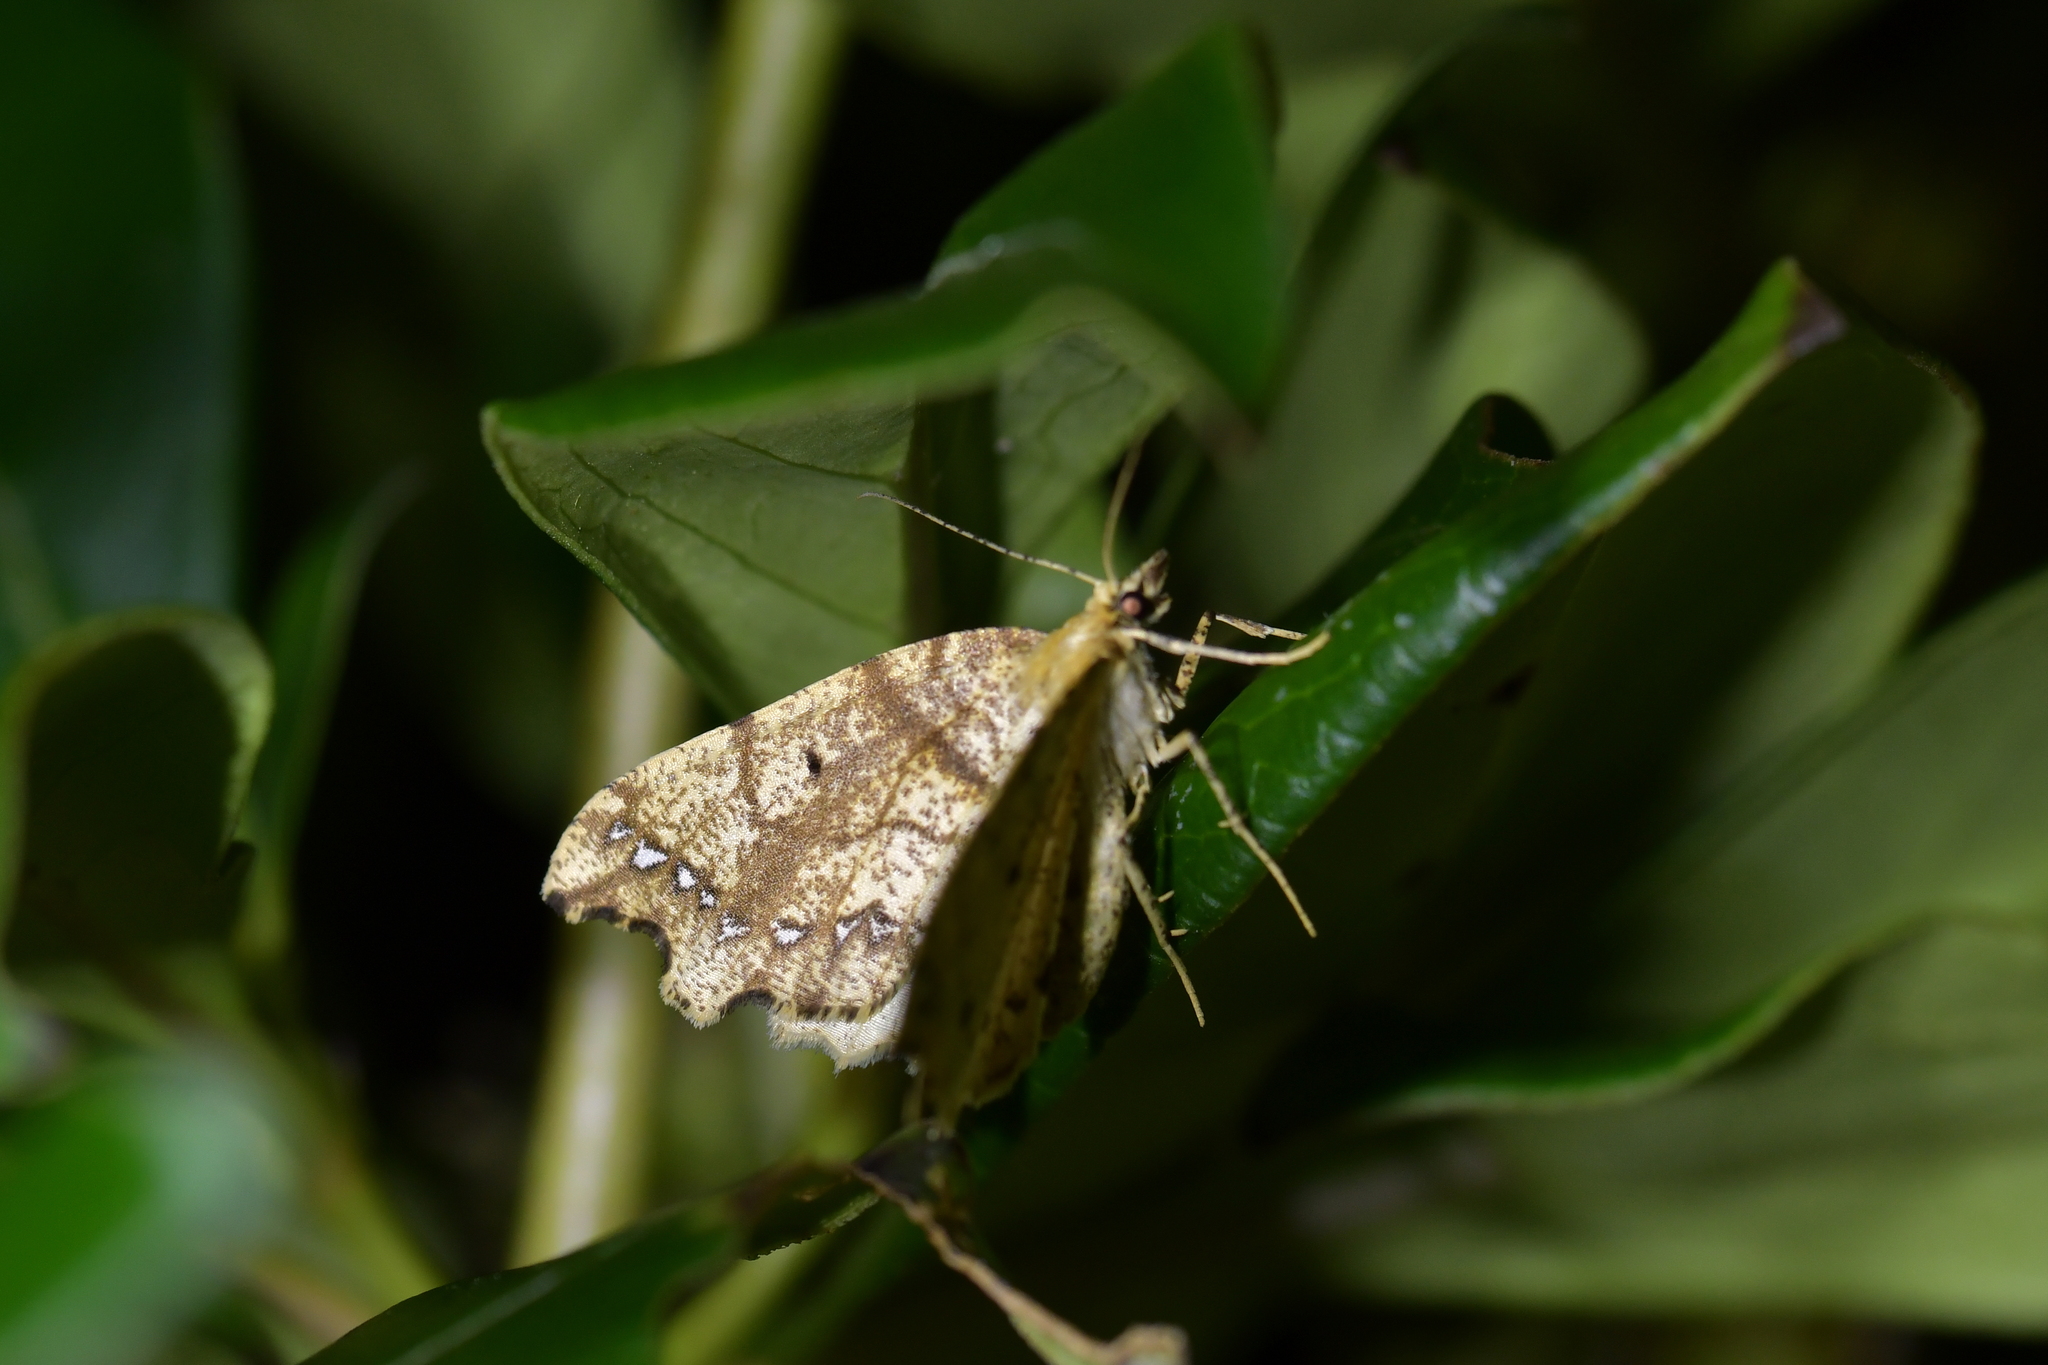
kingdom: Animalia
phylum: Arthropoda
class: Insecta
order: Lepidoptera
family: Geometridae
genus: Chalastra
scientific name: Chalastra pellurgata
